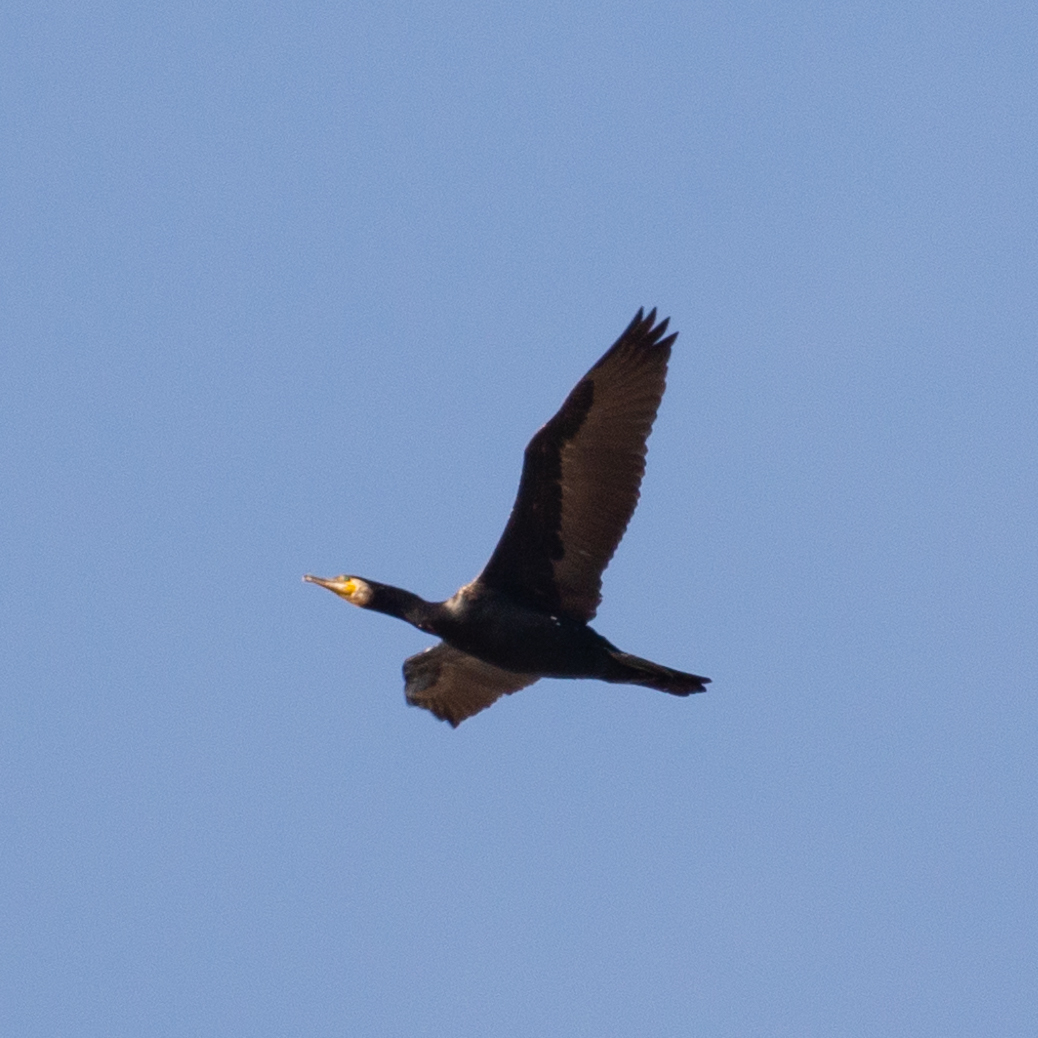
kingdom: Animalia
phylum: Chordata
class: Aves
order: Suliformes
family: Phalacrocoracidae
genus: Phalacrocorax
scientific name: Phalacrocorax carbo
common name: Great cormorant
